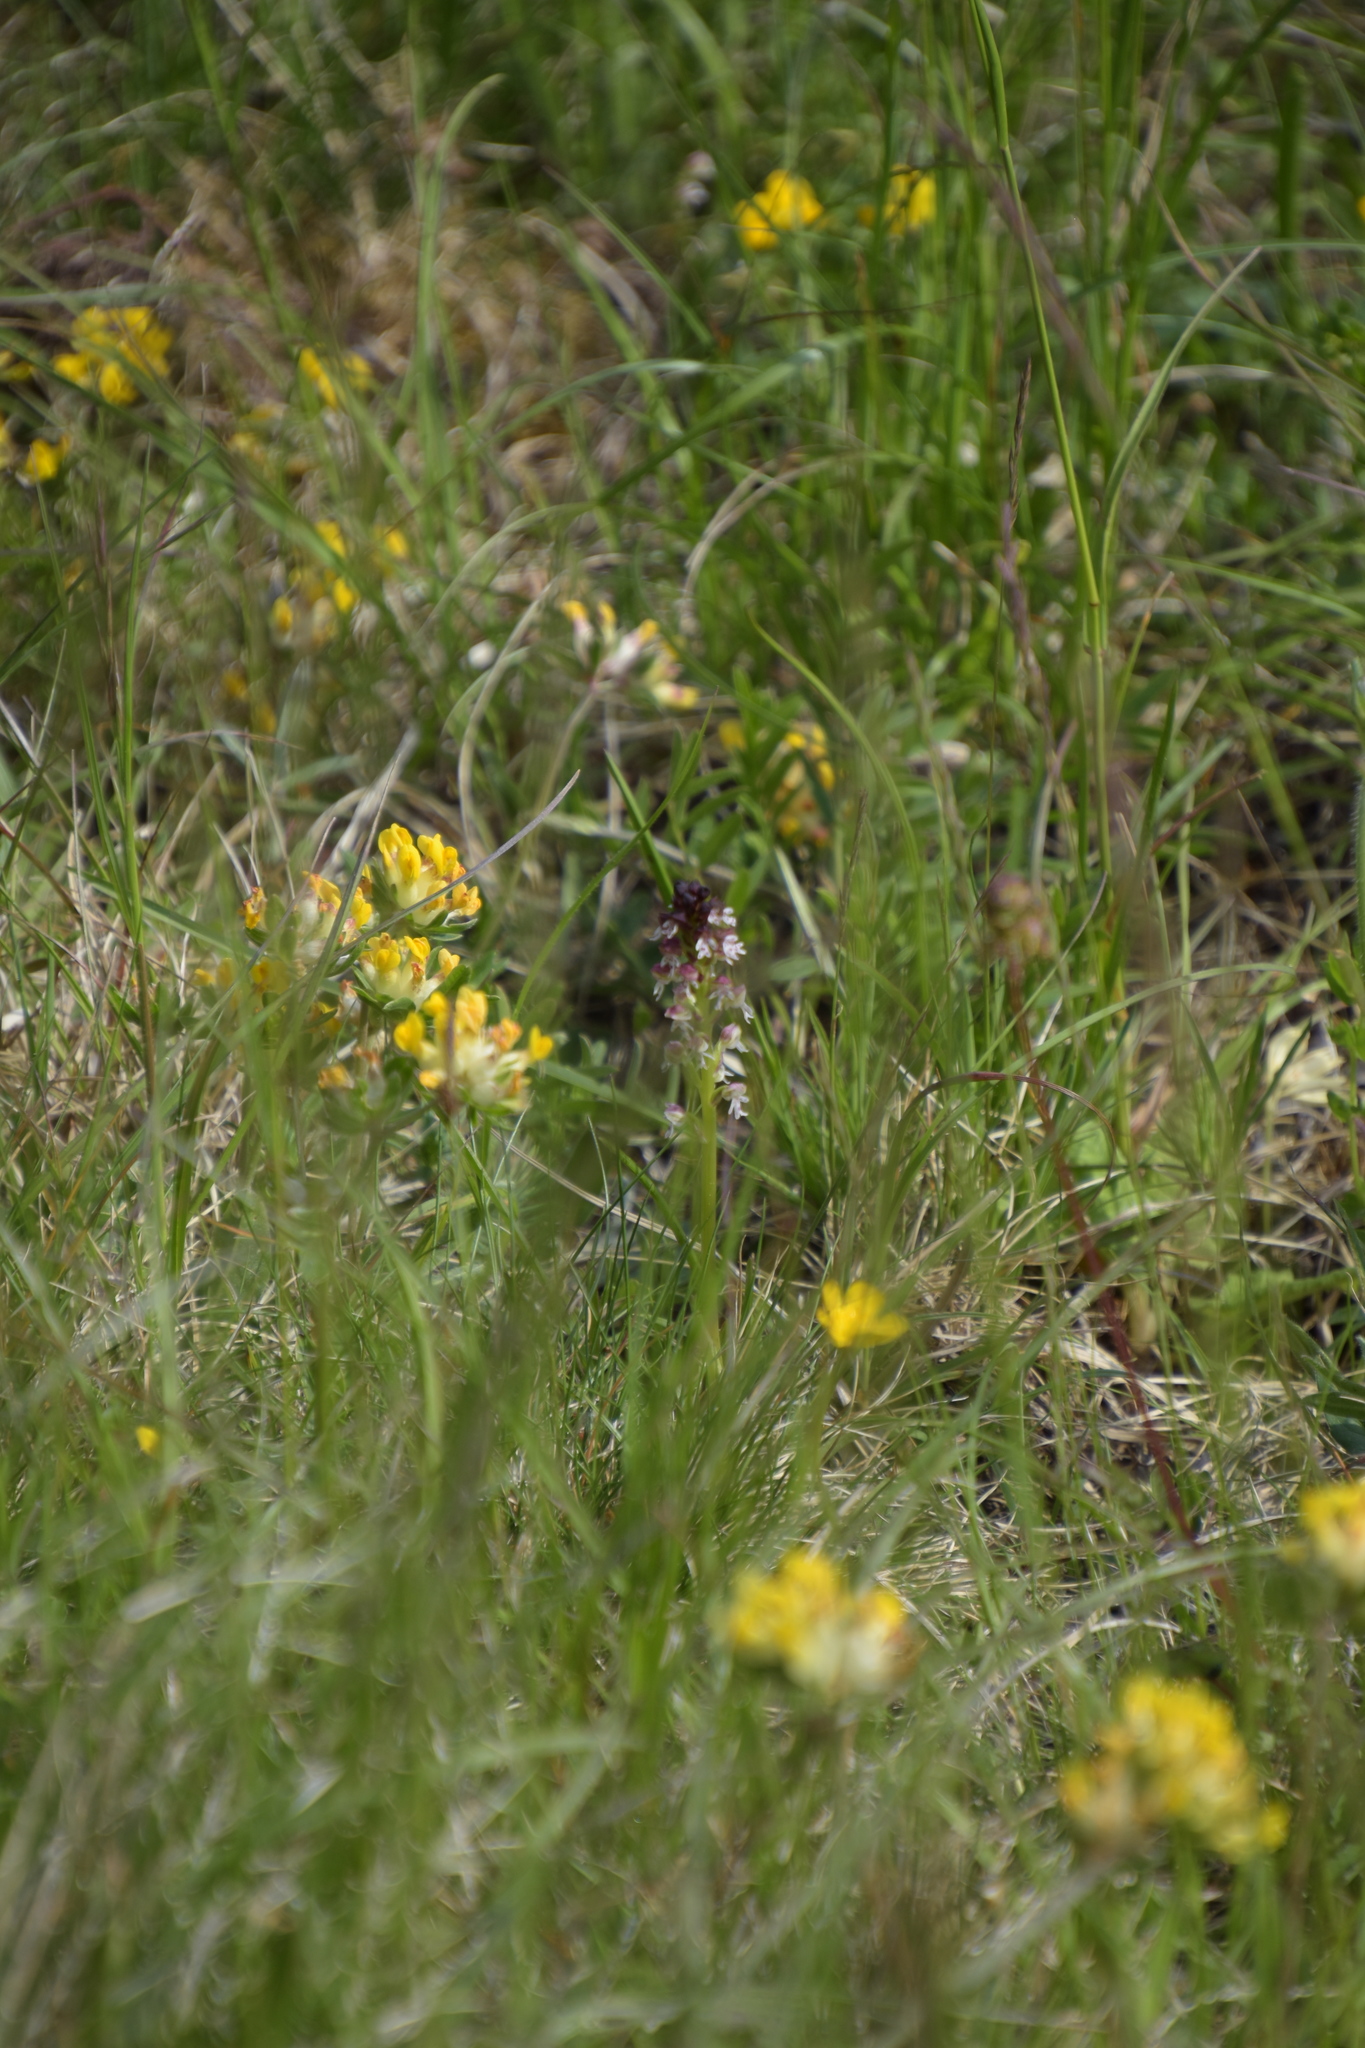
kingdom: Plantae
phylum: Tracheophyta
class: Liliopsida
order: Asparagales
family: Orchidaceae
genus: Neotinea
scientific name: Neotinea ustulata
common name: Burnt orchid
